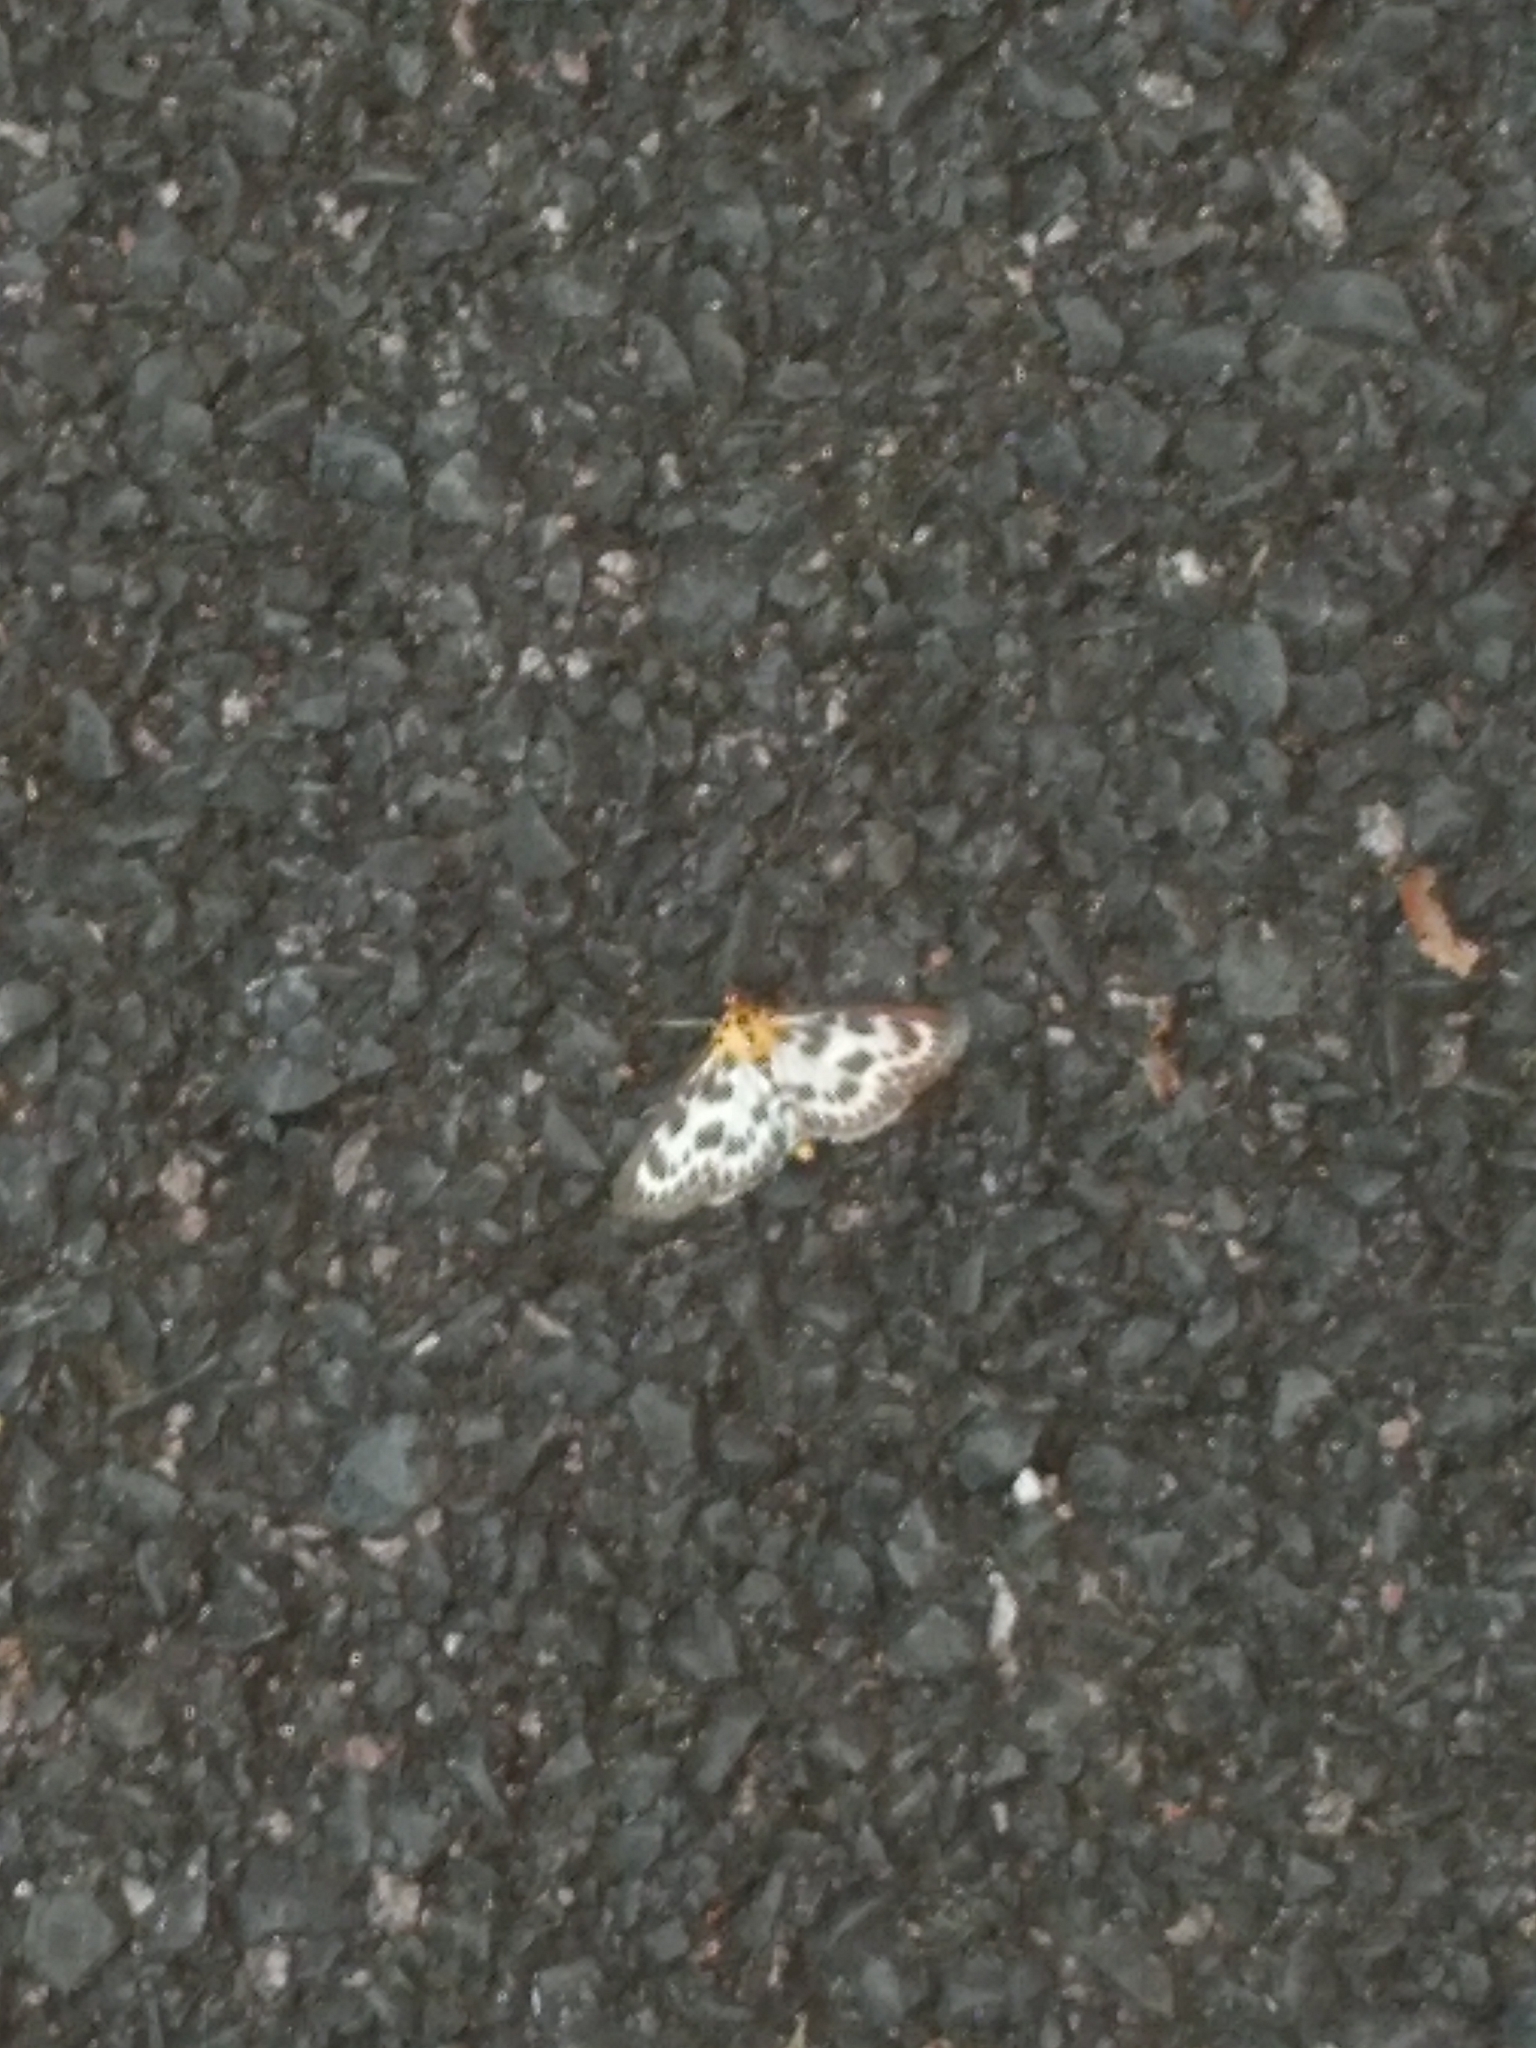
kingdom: Animalia
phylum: Arthropoda
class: Insecta
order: Lepidoptera
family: Crambidae
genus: Anania
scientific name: Anania hortulata
